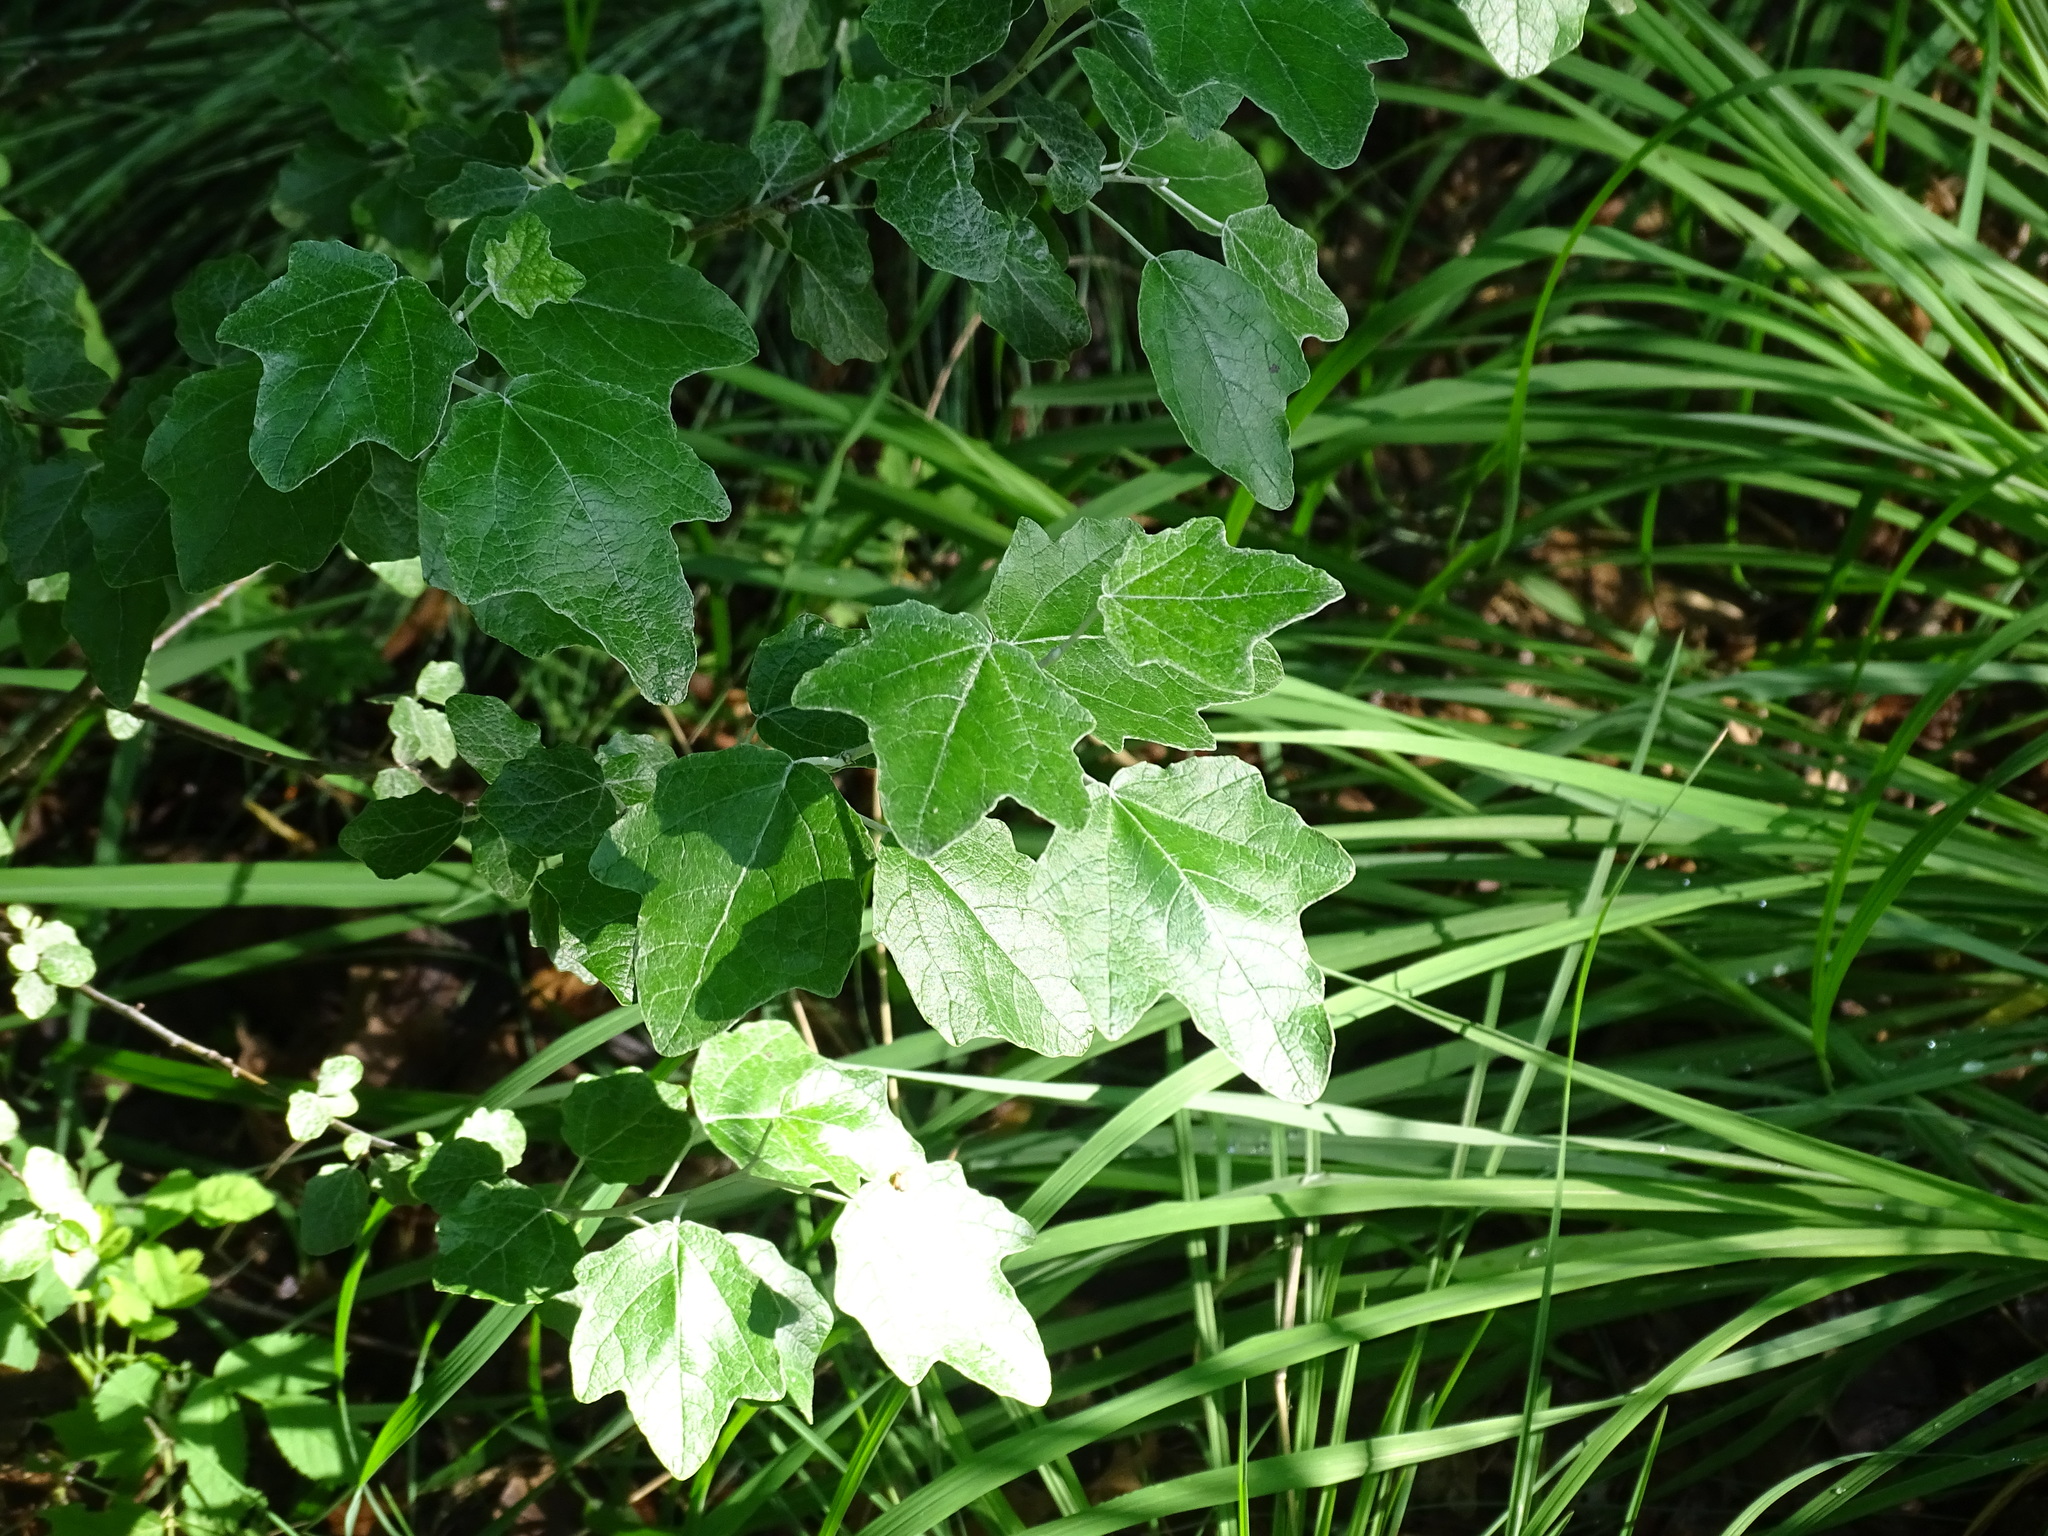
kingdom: Plantae
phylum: Tracheophyta
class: Magnoliopsida
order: Malpighiales
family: Salicaceae
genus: Populus
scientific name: Populus alba
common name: White poplar
